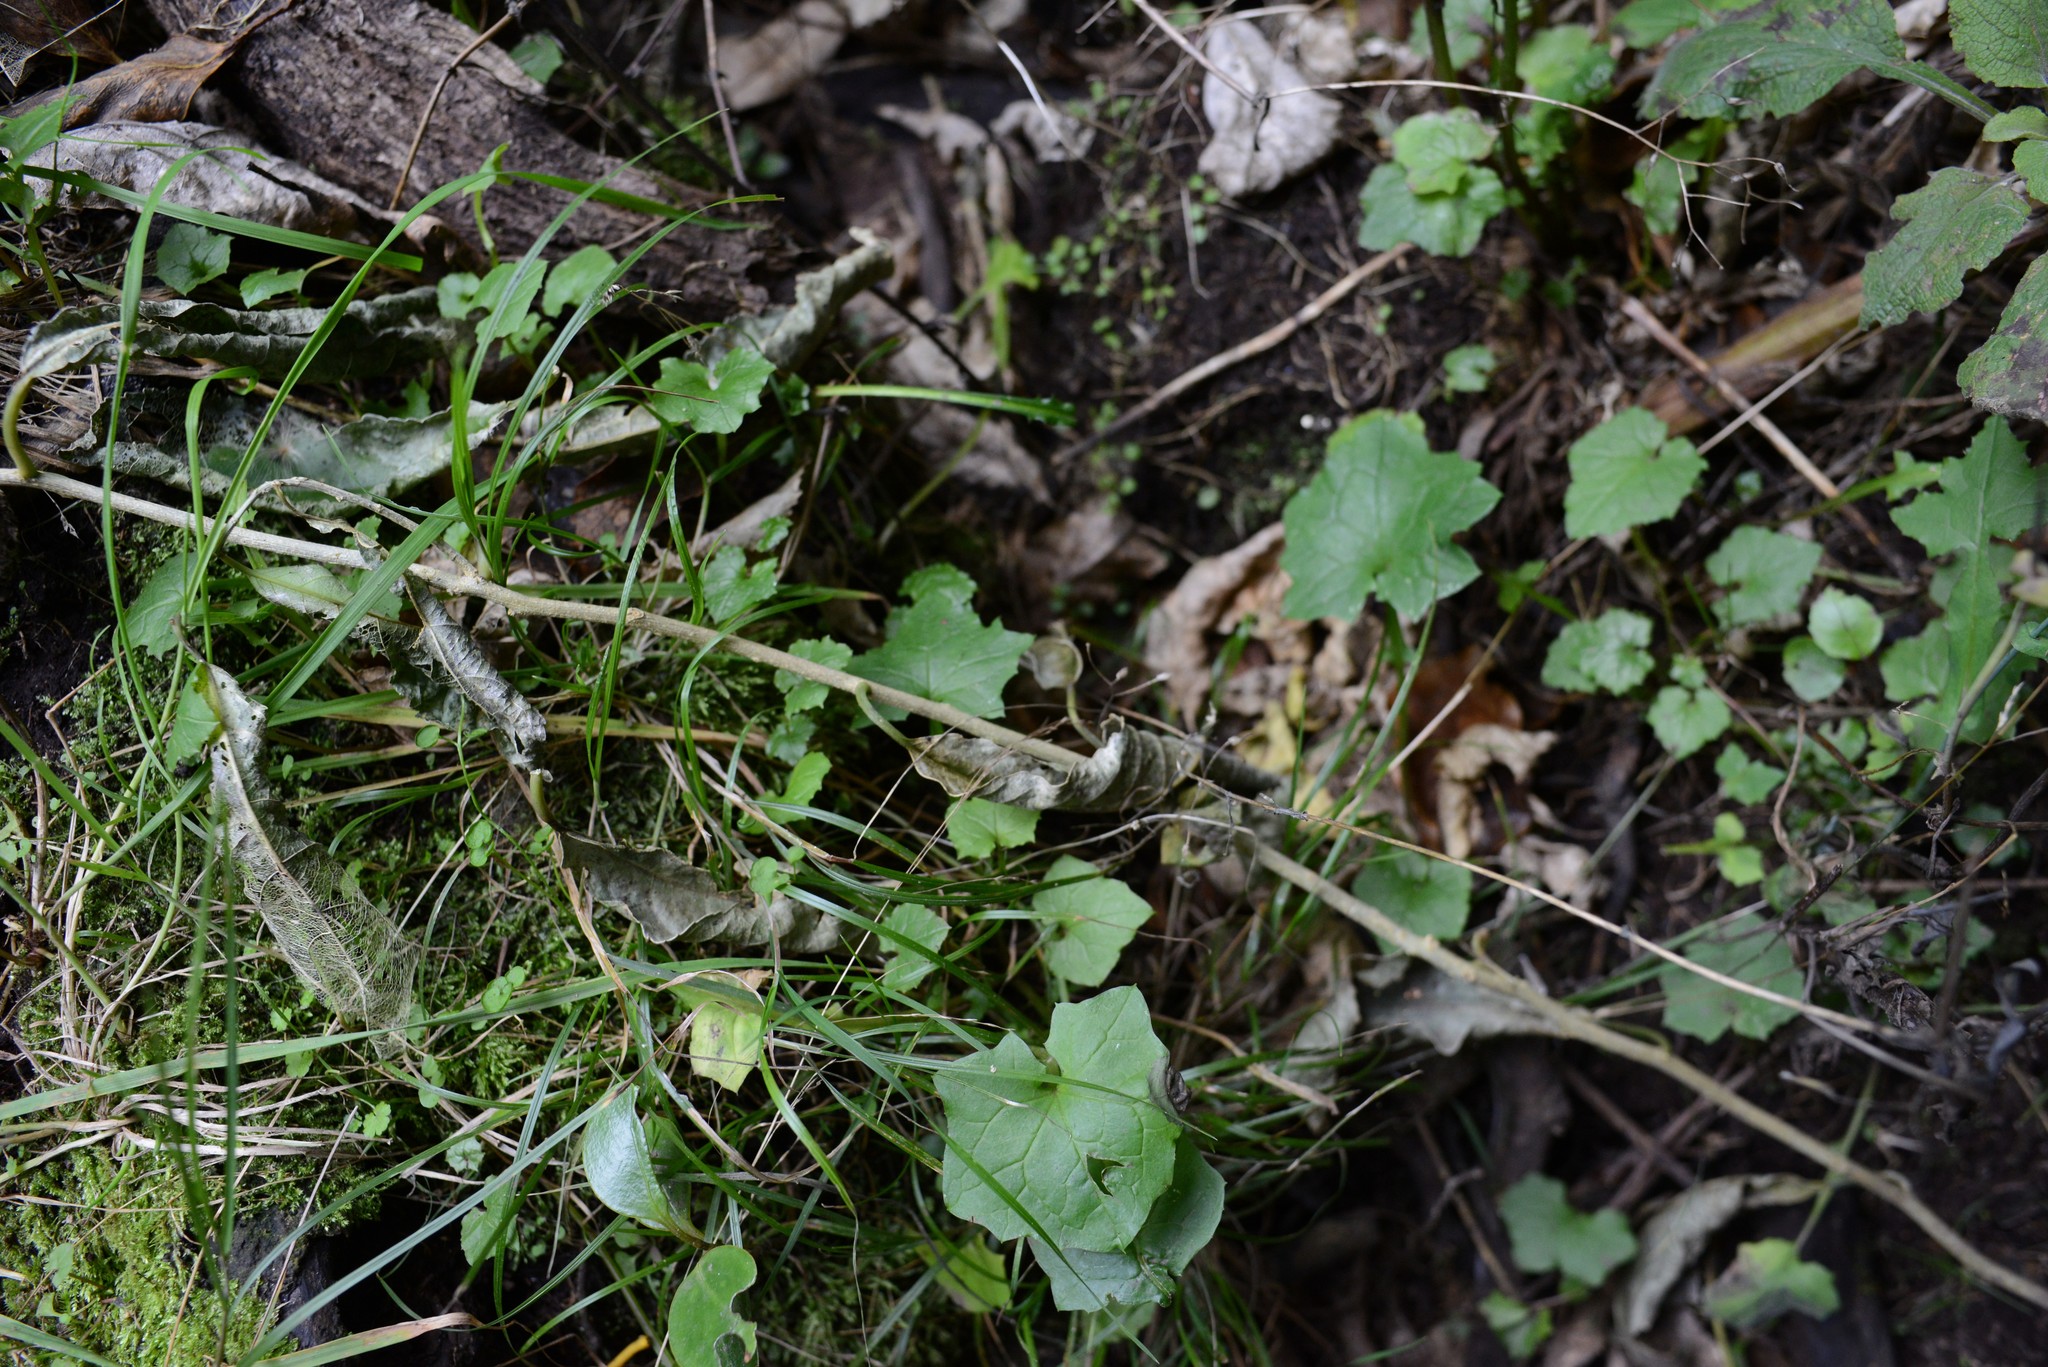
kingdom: Plantae
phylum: Tracheophyta
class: Magnoliopsida
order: Asterales
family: Asteraceae
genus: Mycelis
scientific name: Mycelis muralis
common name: Wall lettuce
